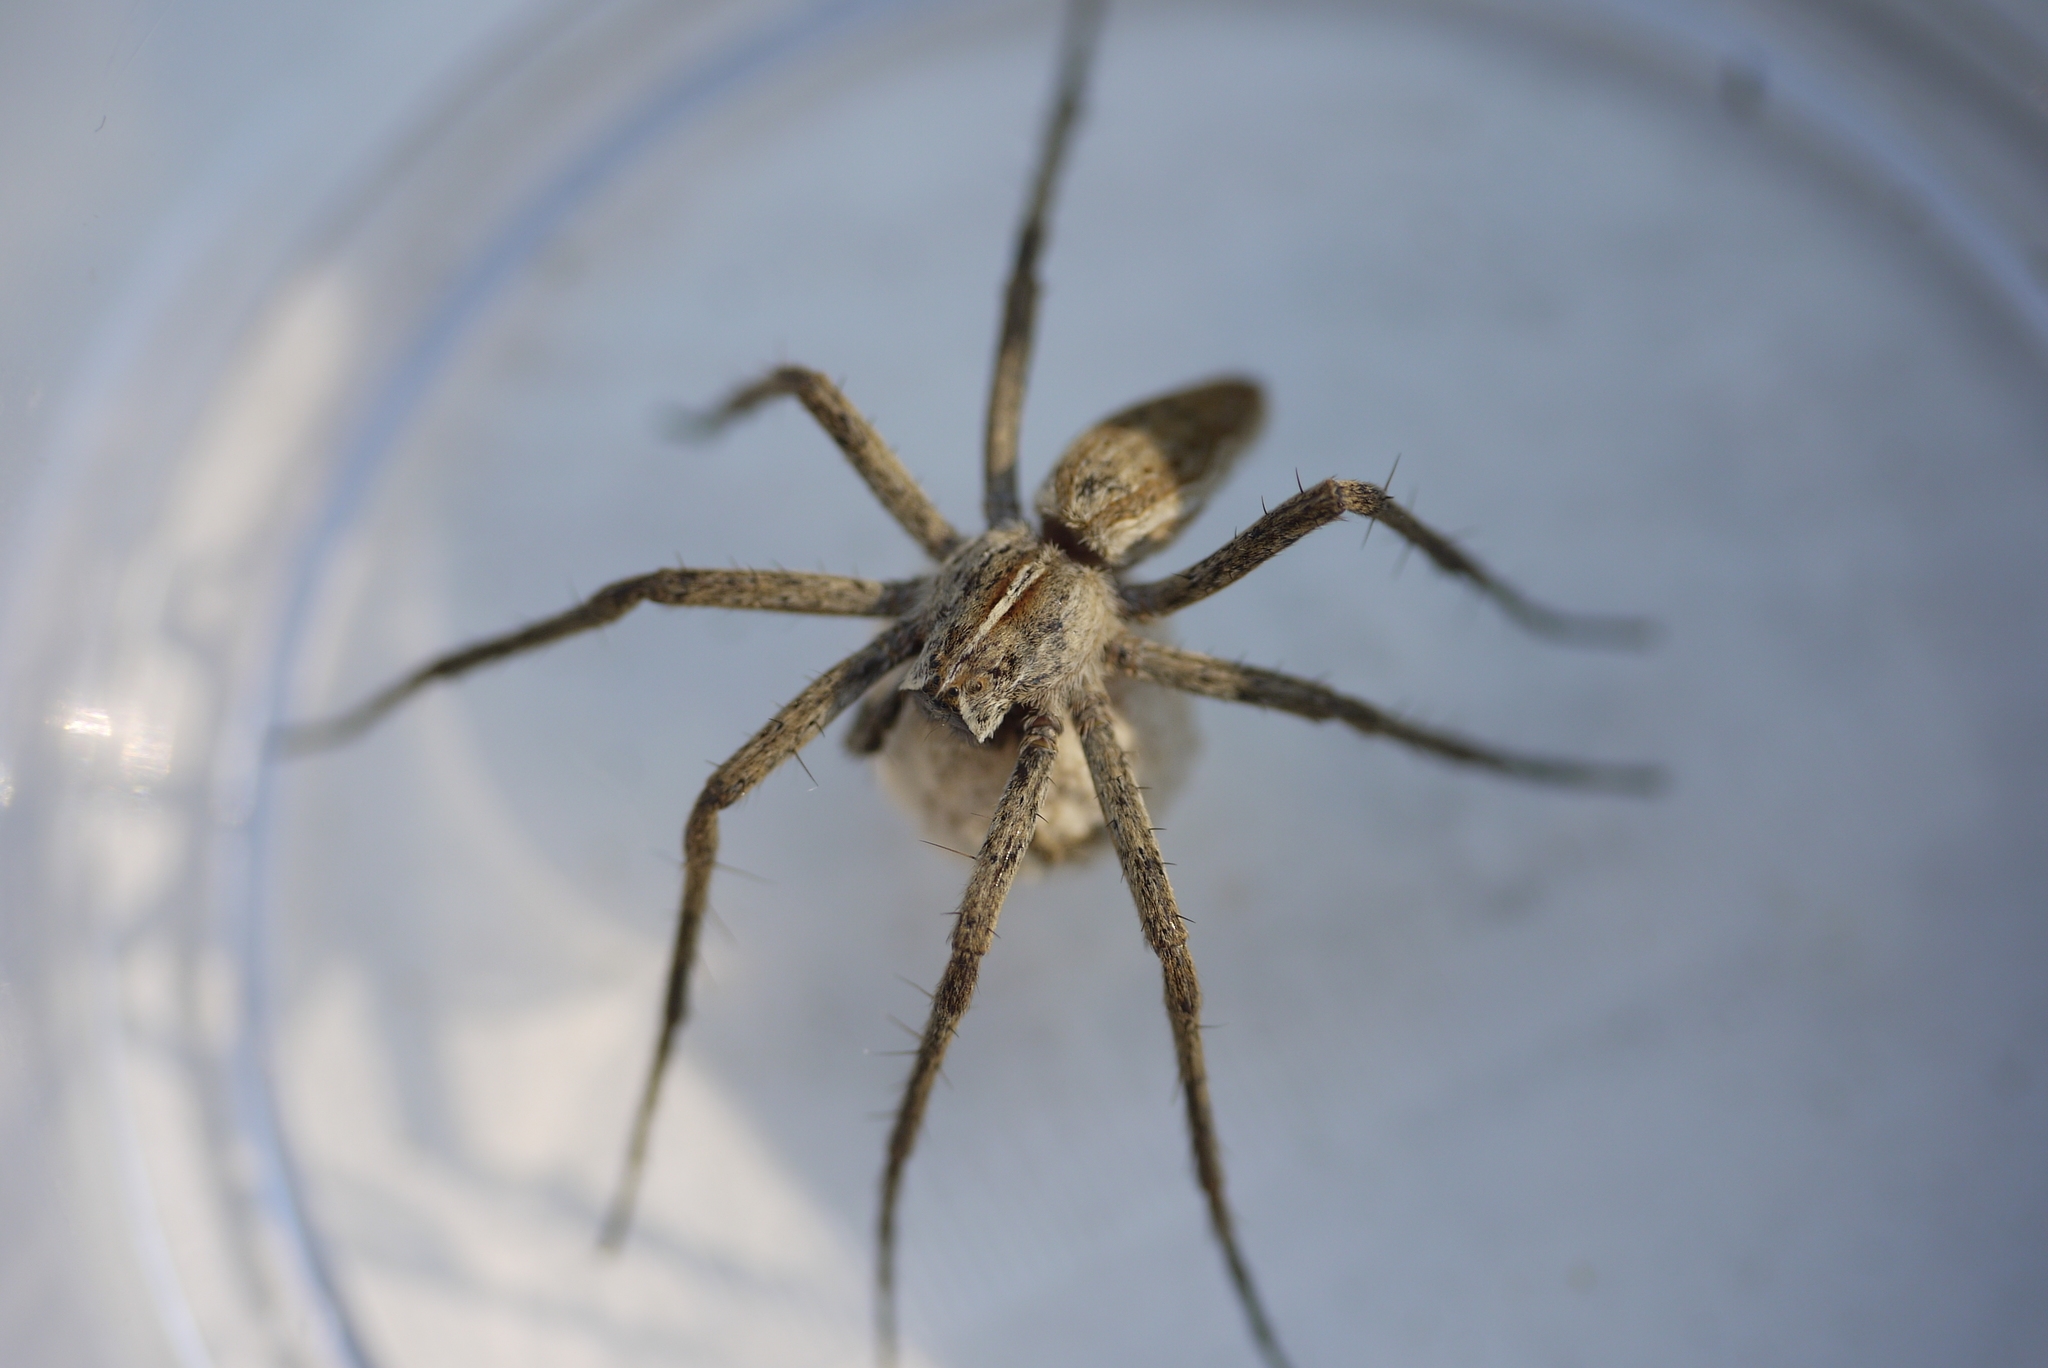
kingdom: Animalia
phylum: Arthropoda
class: Arachnida
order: Araneae
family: Pisauridae
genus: Pisaura
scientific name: Pisaura mirabilis
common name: Tent spider
